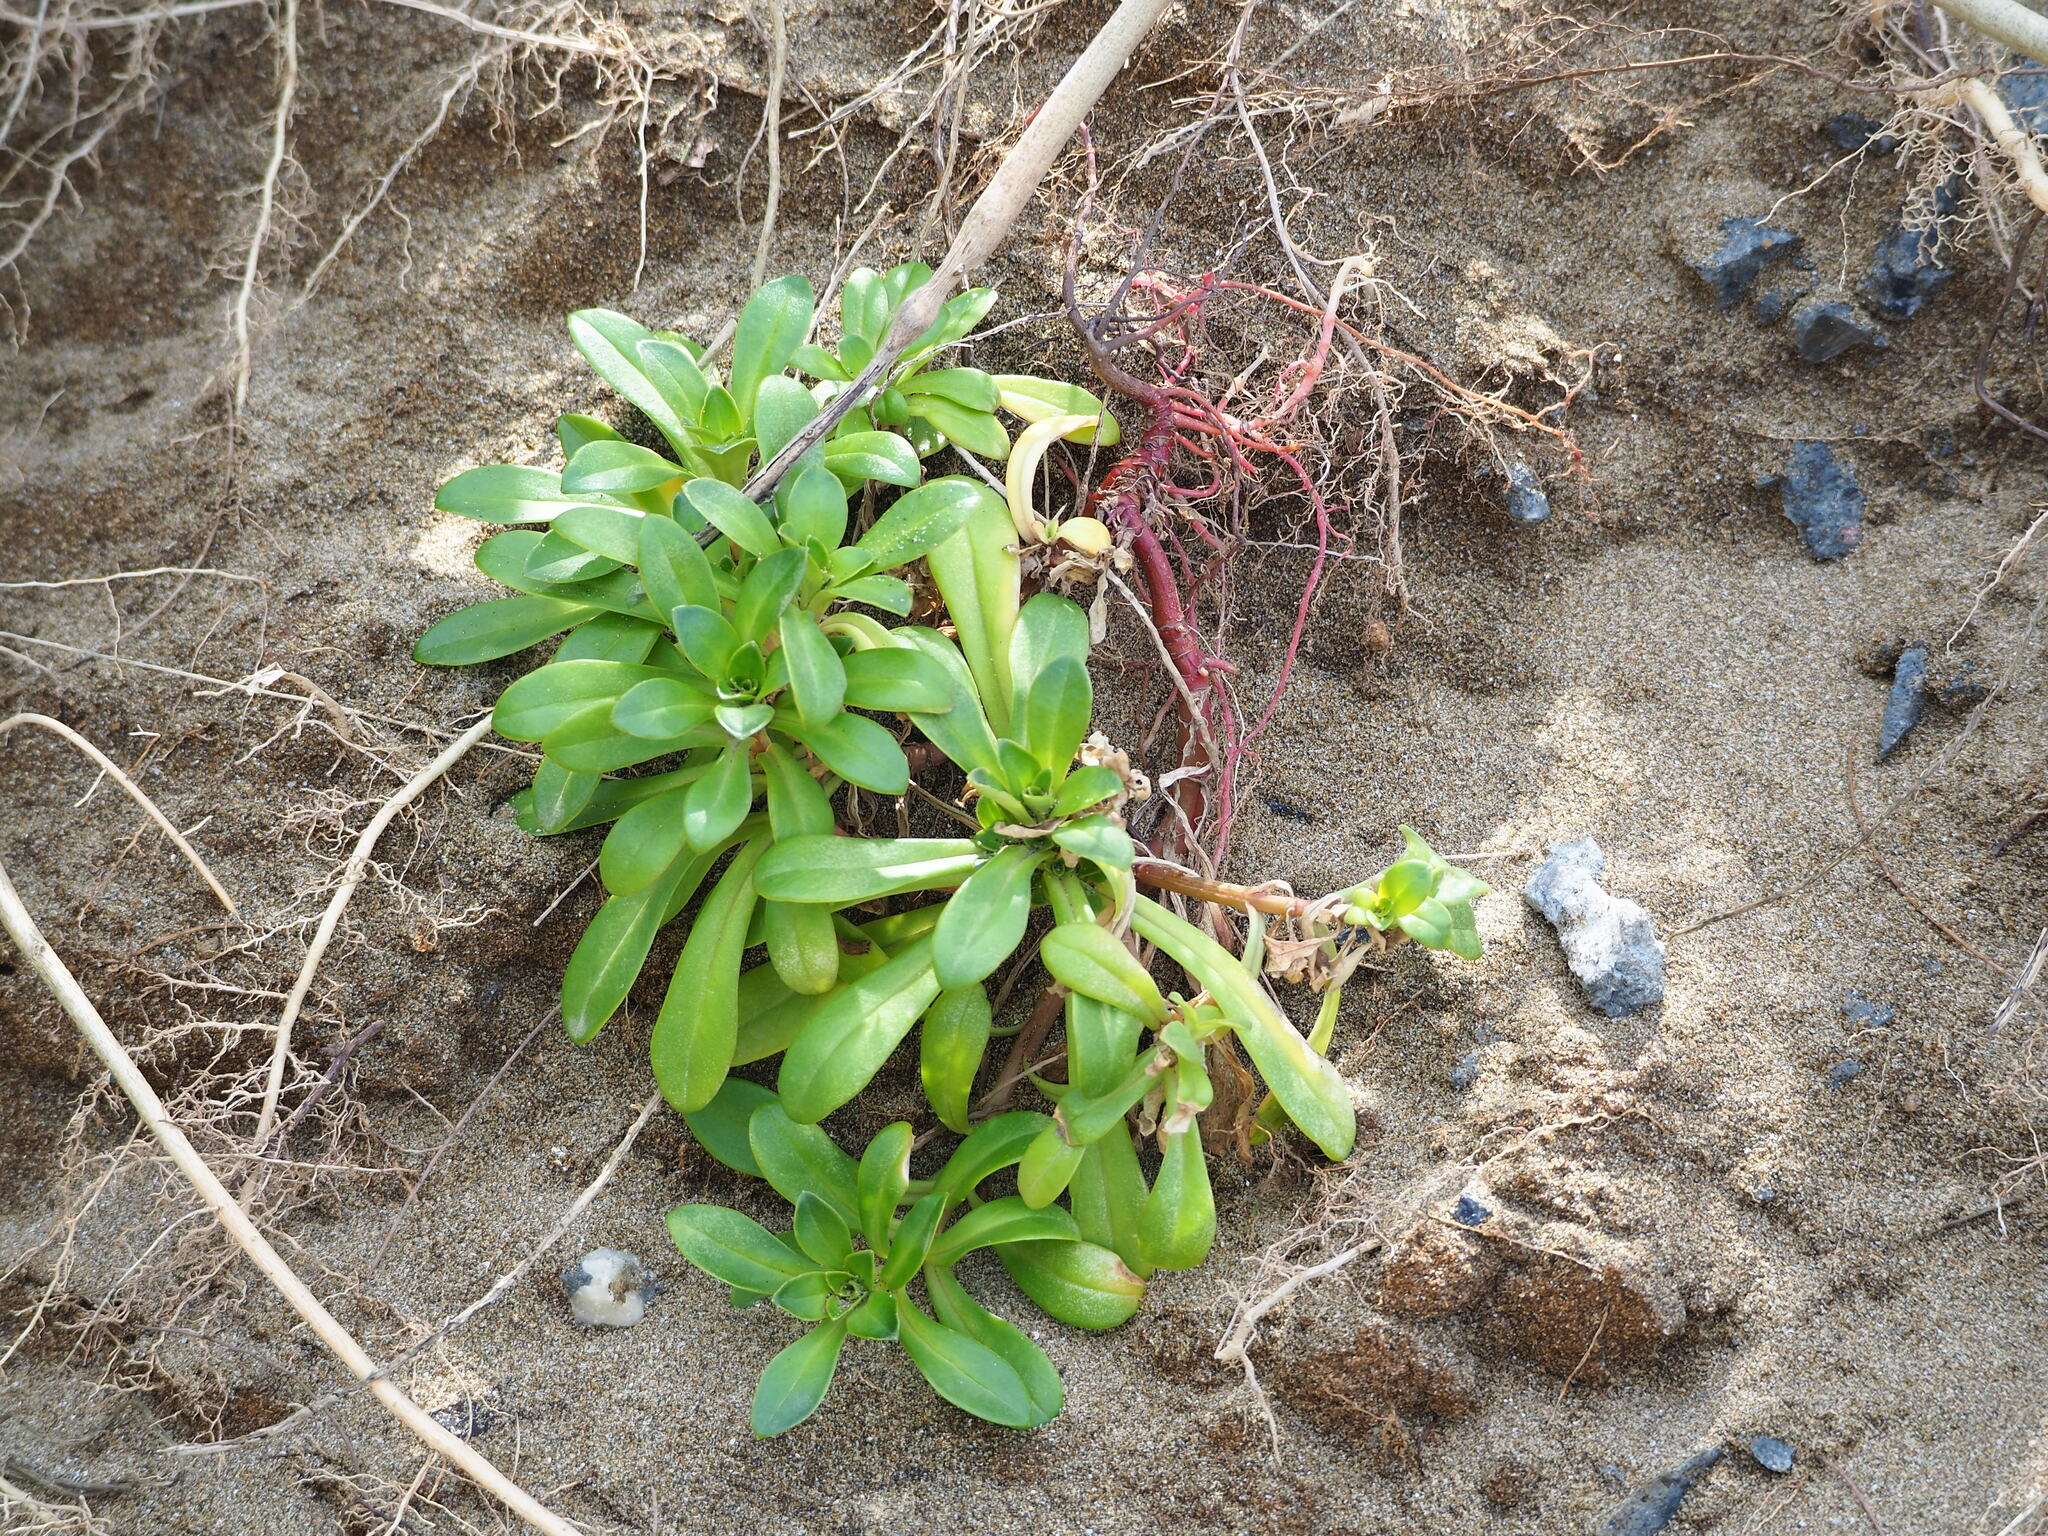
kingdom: Plantae
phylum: Tracheophyta
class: Magnoliopsida
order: Ericales
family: Primulaceae
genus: Lysimachia
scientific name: Lysimachia mauritiana
